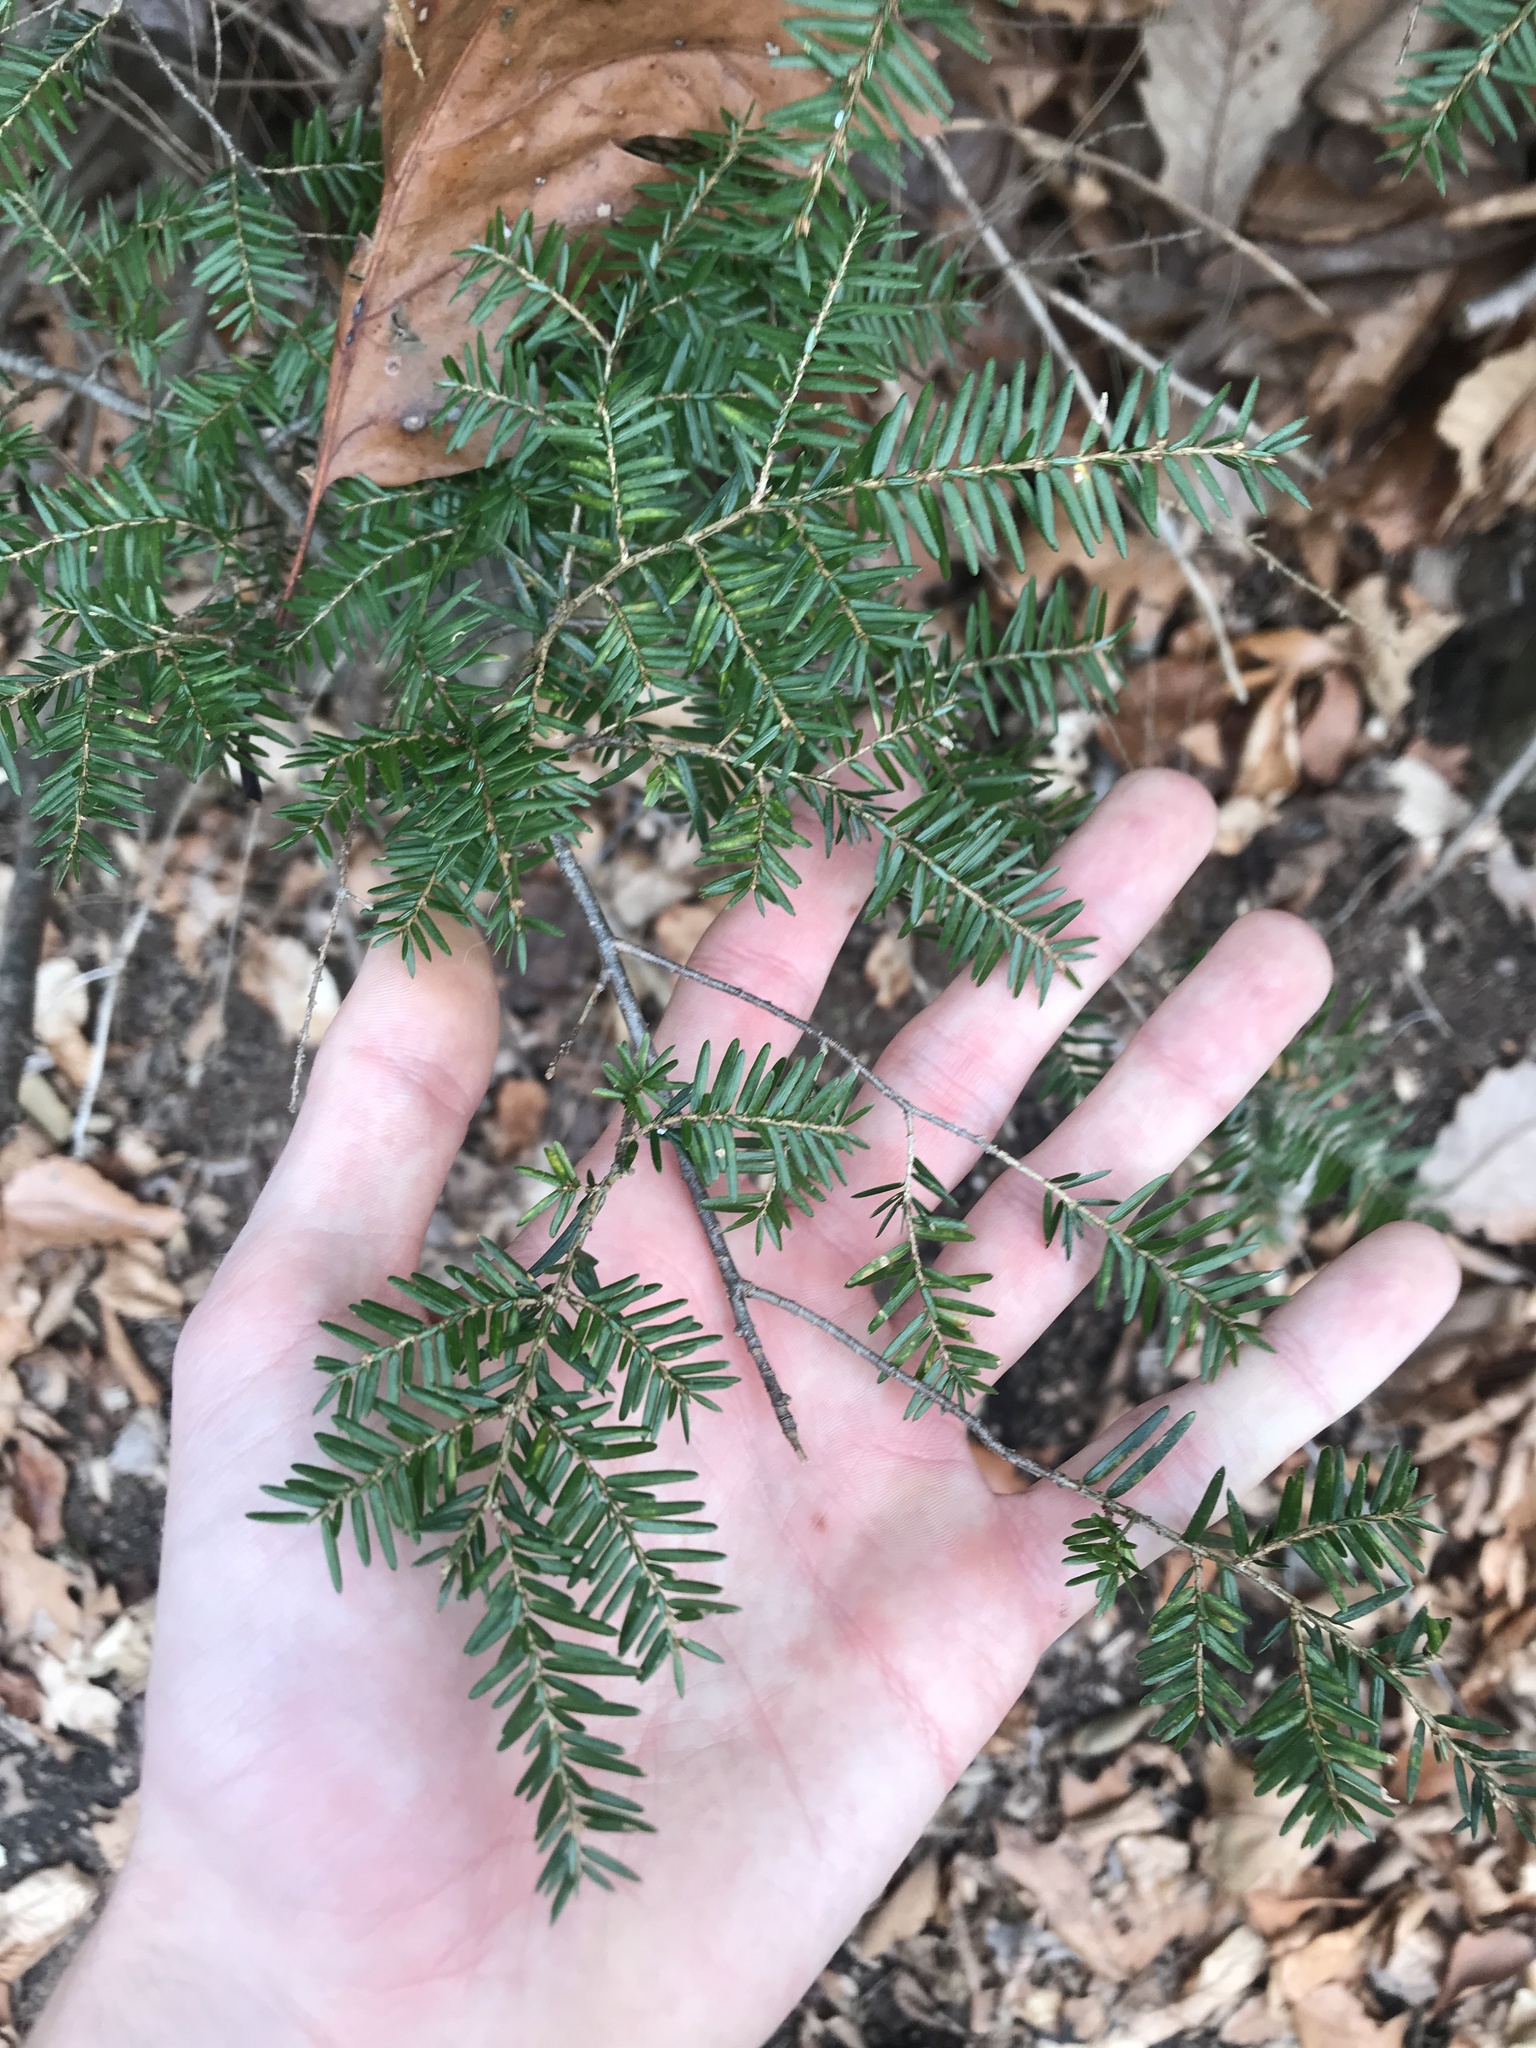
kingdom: Plantae
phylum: Tracheophyta
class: Pinopsida
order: Pinales
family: Pinaceae
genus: Tsuga
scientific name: Tsuga canadensis
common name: Eastern hemlock
